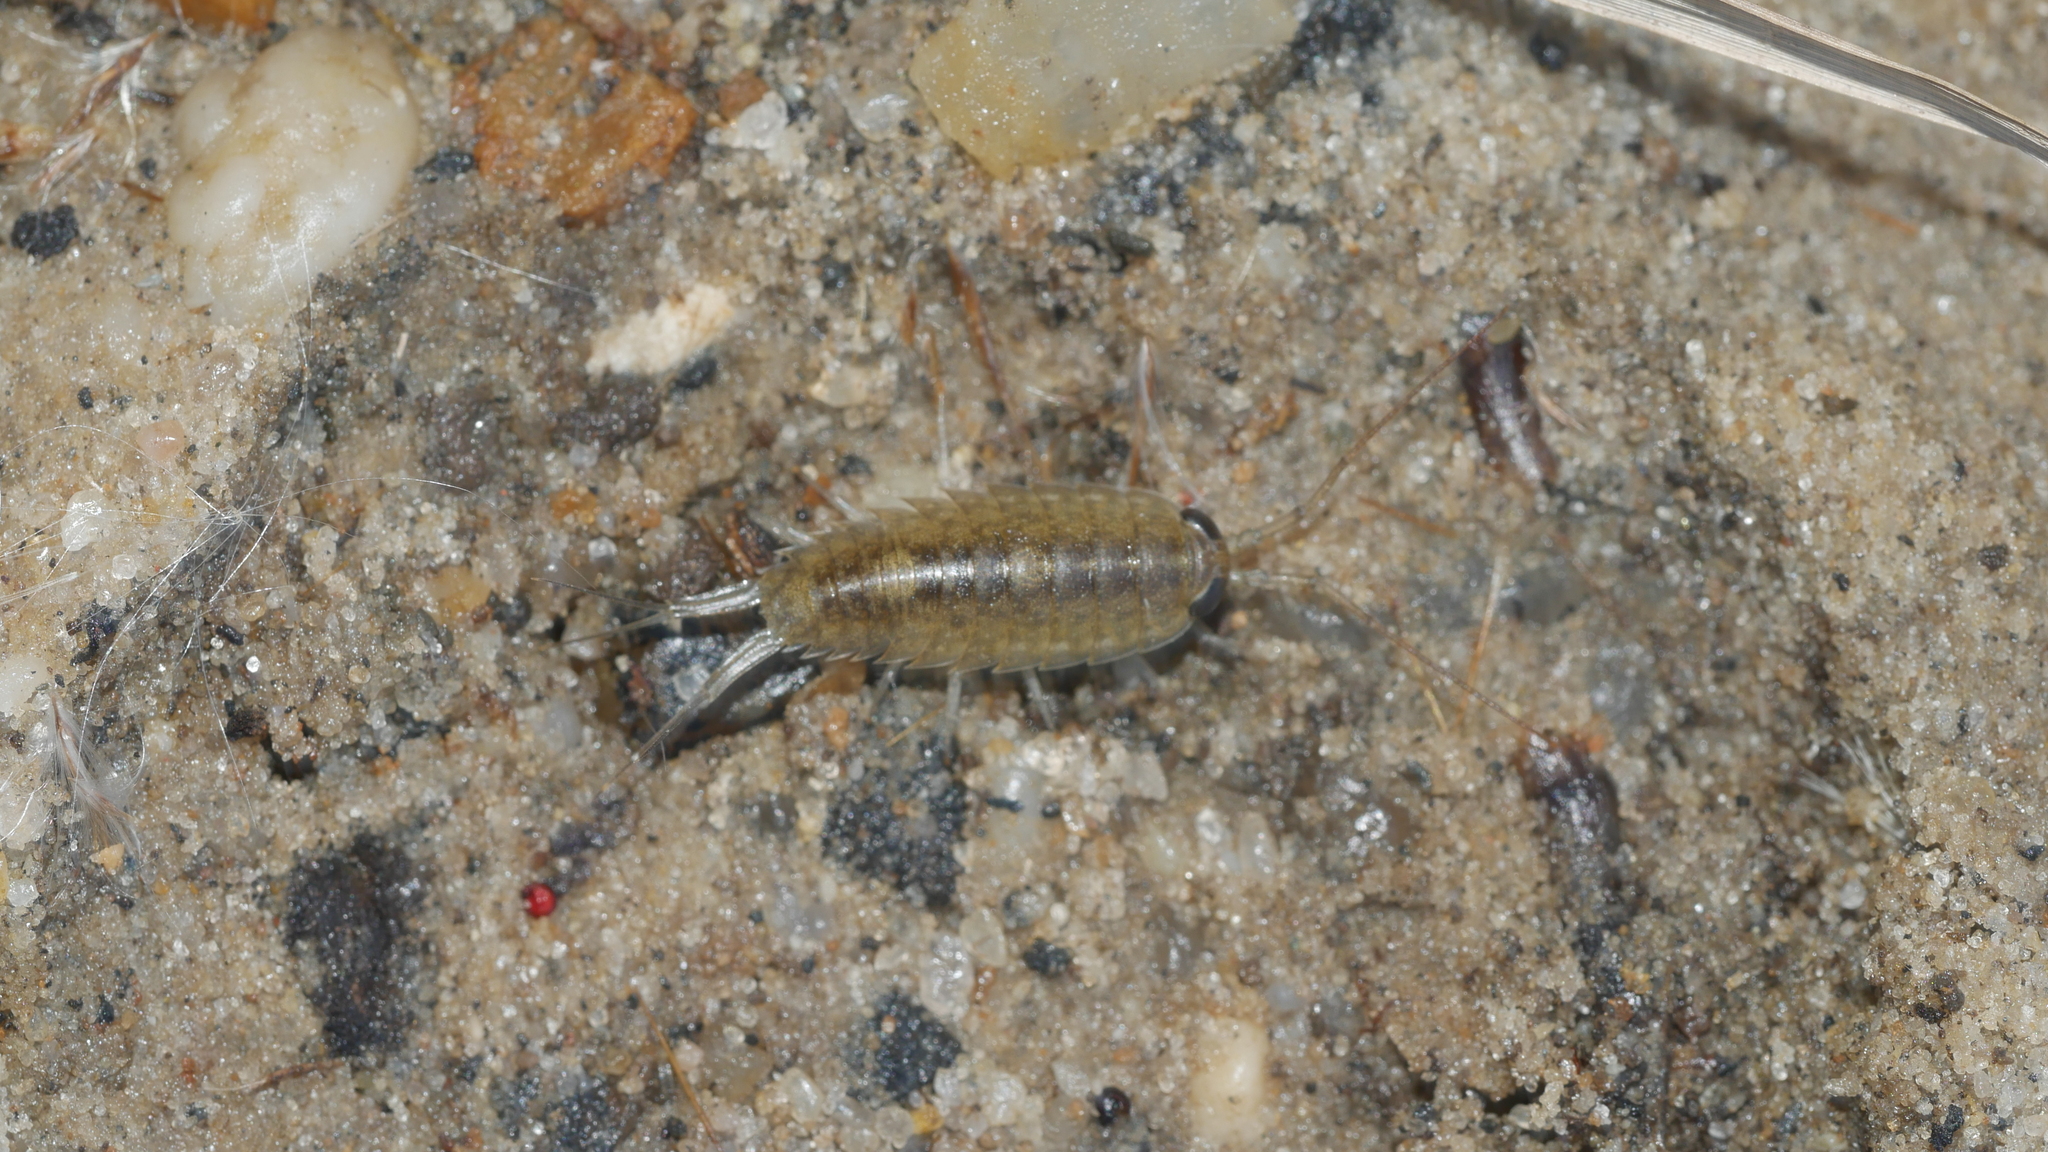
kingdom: Animalia
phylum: Arthropoda
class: Malacostraca
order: Isopoda
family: Ligiidae
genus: Ligia
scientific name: Ligia exotica
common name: Wharf roach
